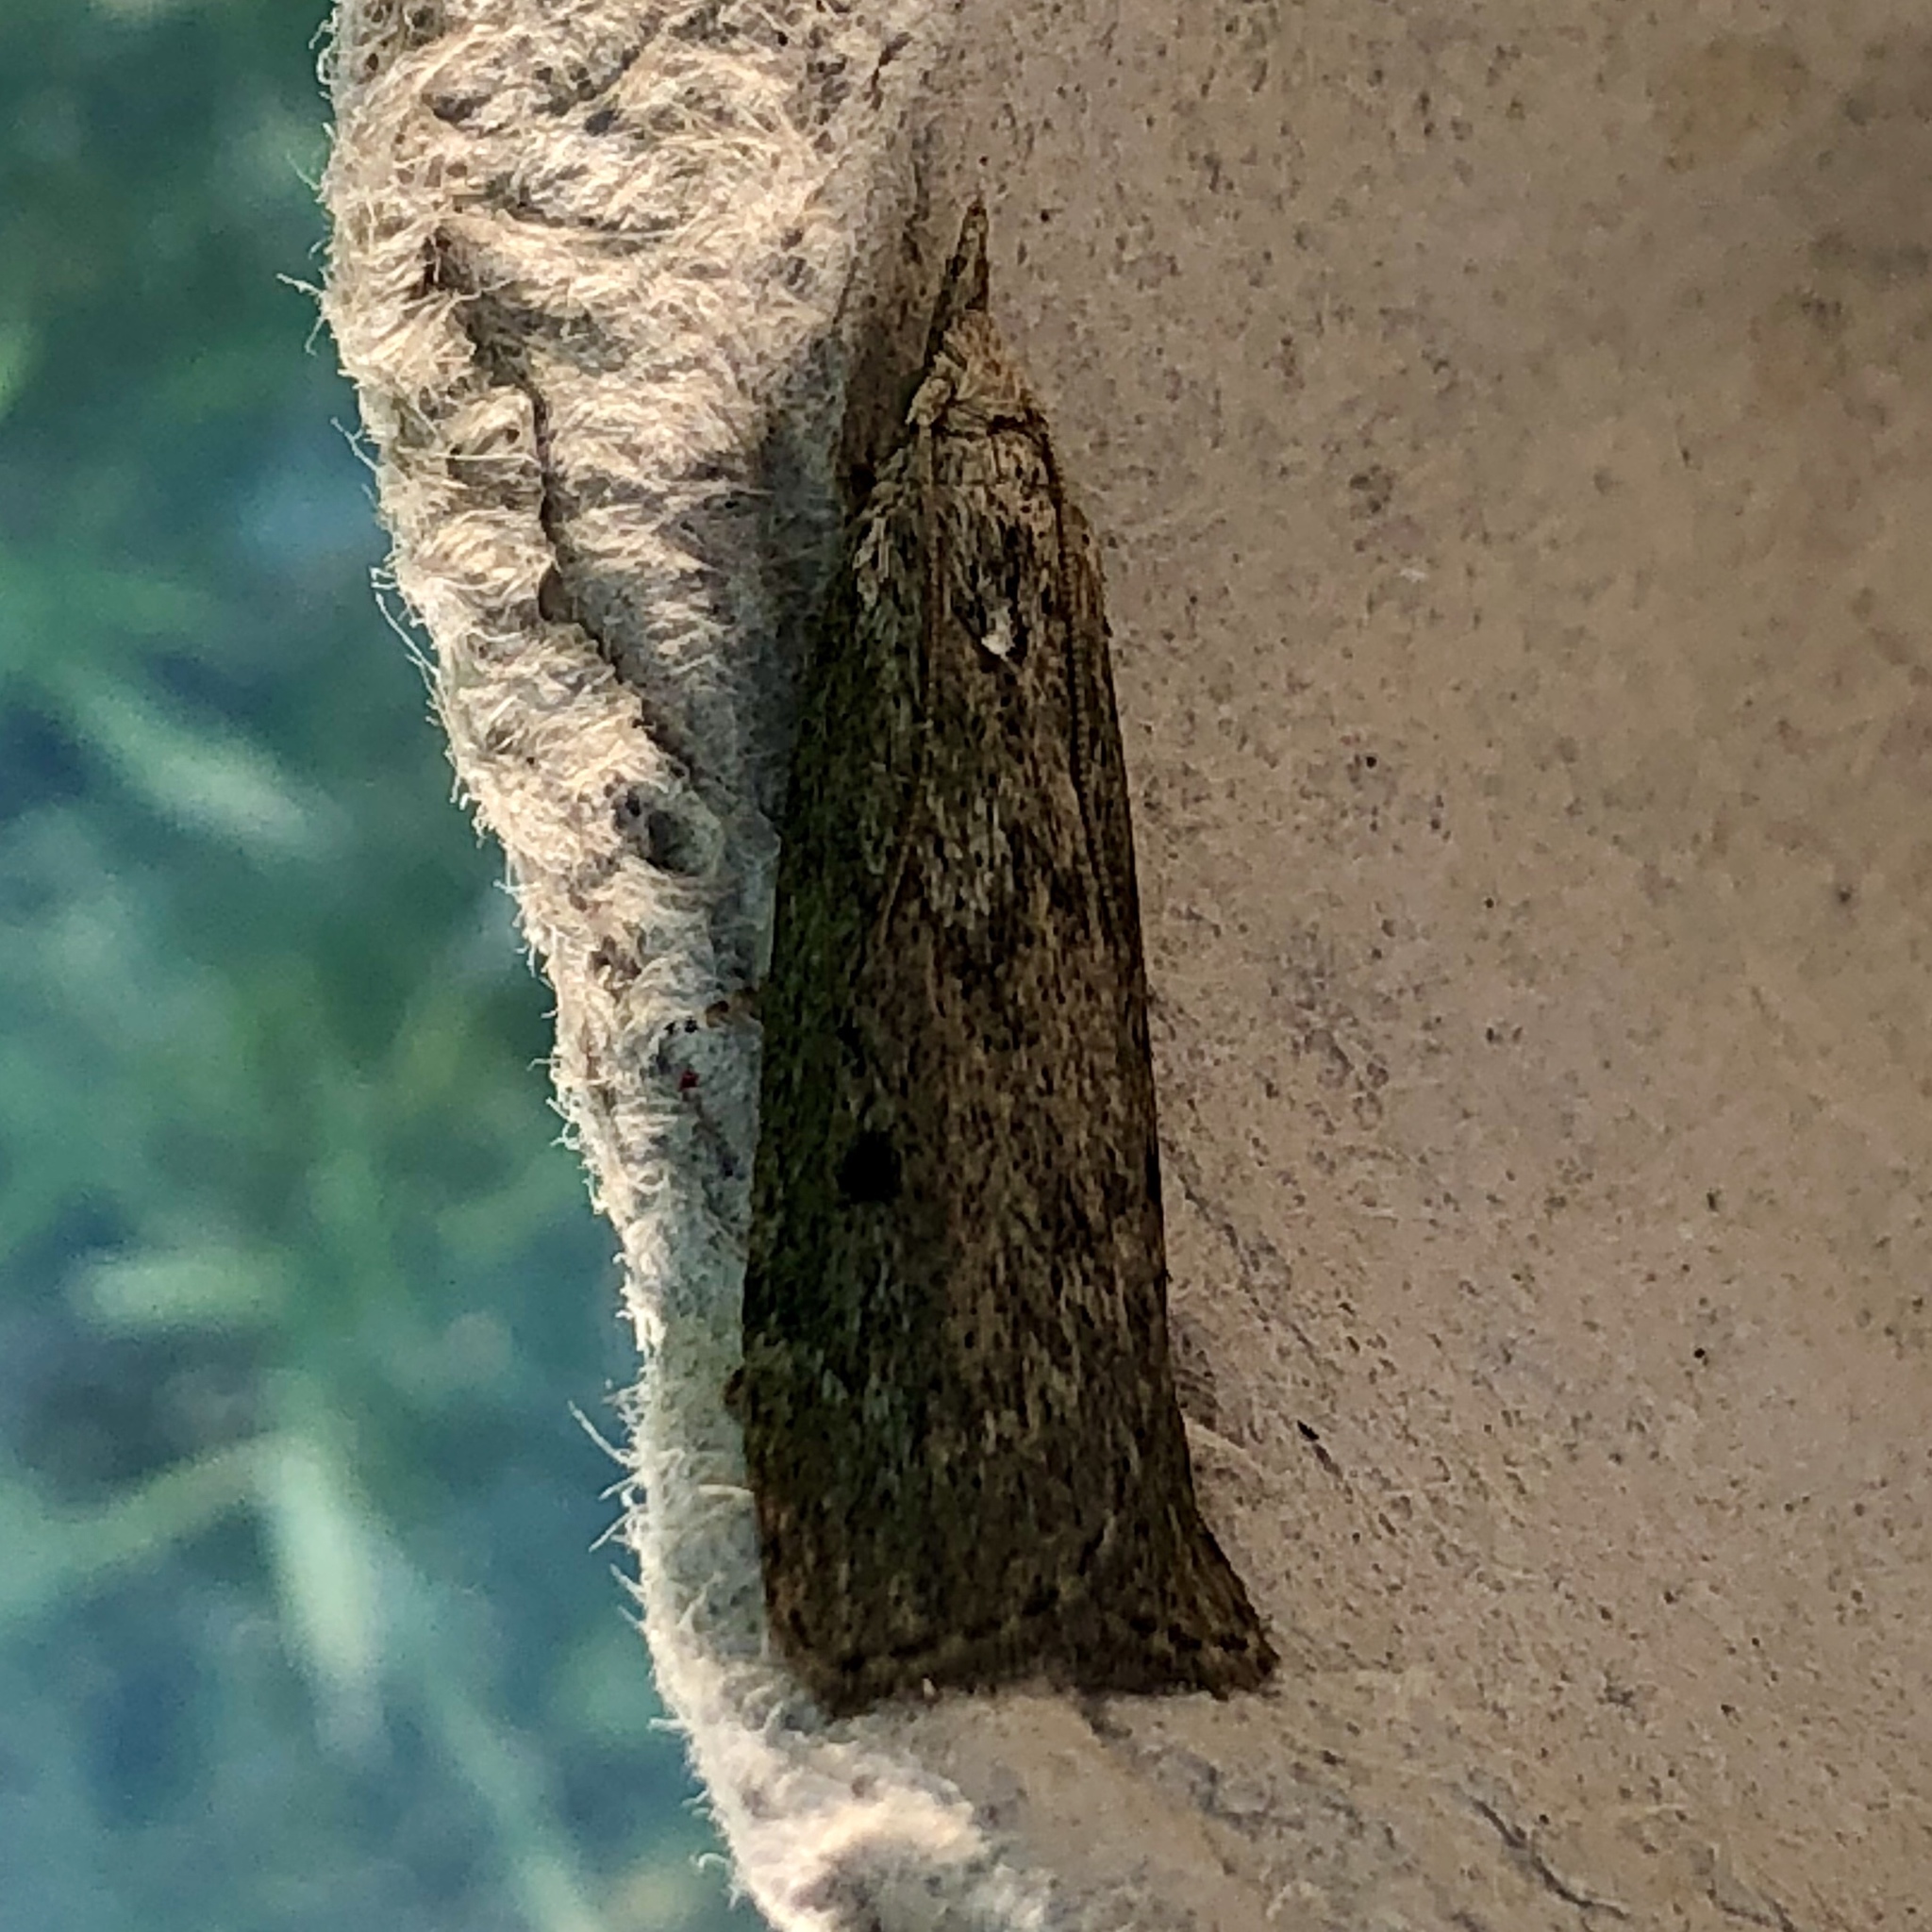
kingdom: Animalia
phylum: Arthropoda
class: Insecta
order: Lepidoptera
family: Pyralidae
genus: Aphomia
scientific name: Aphomia sociella
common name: Bee moth
